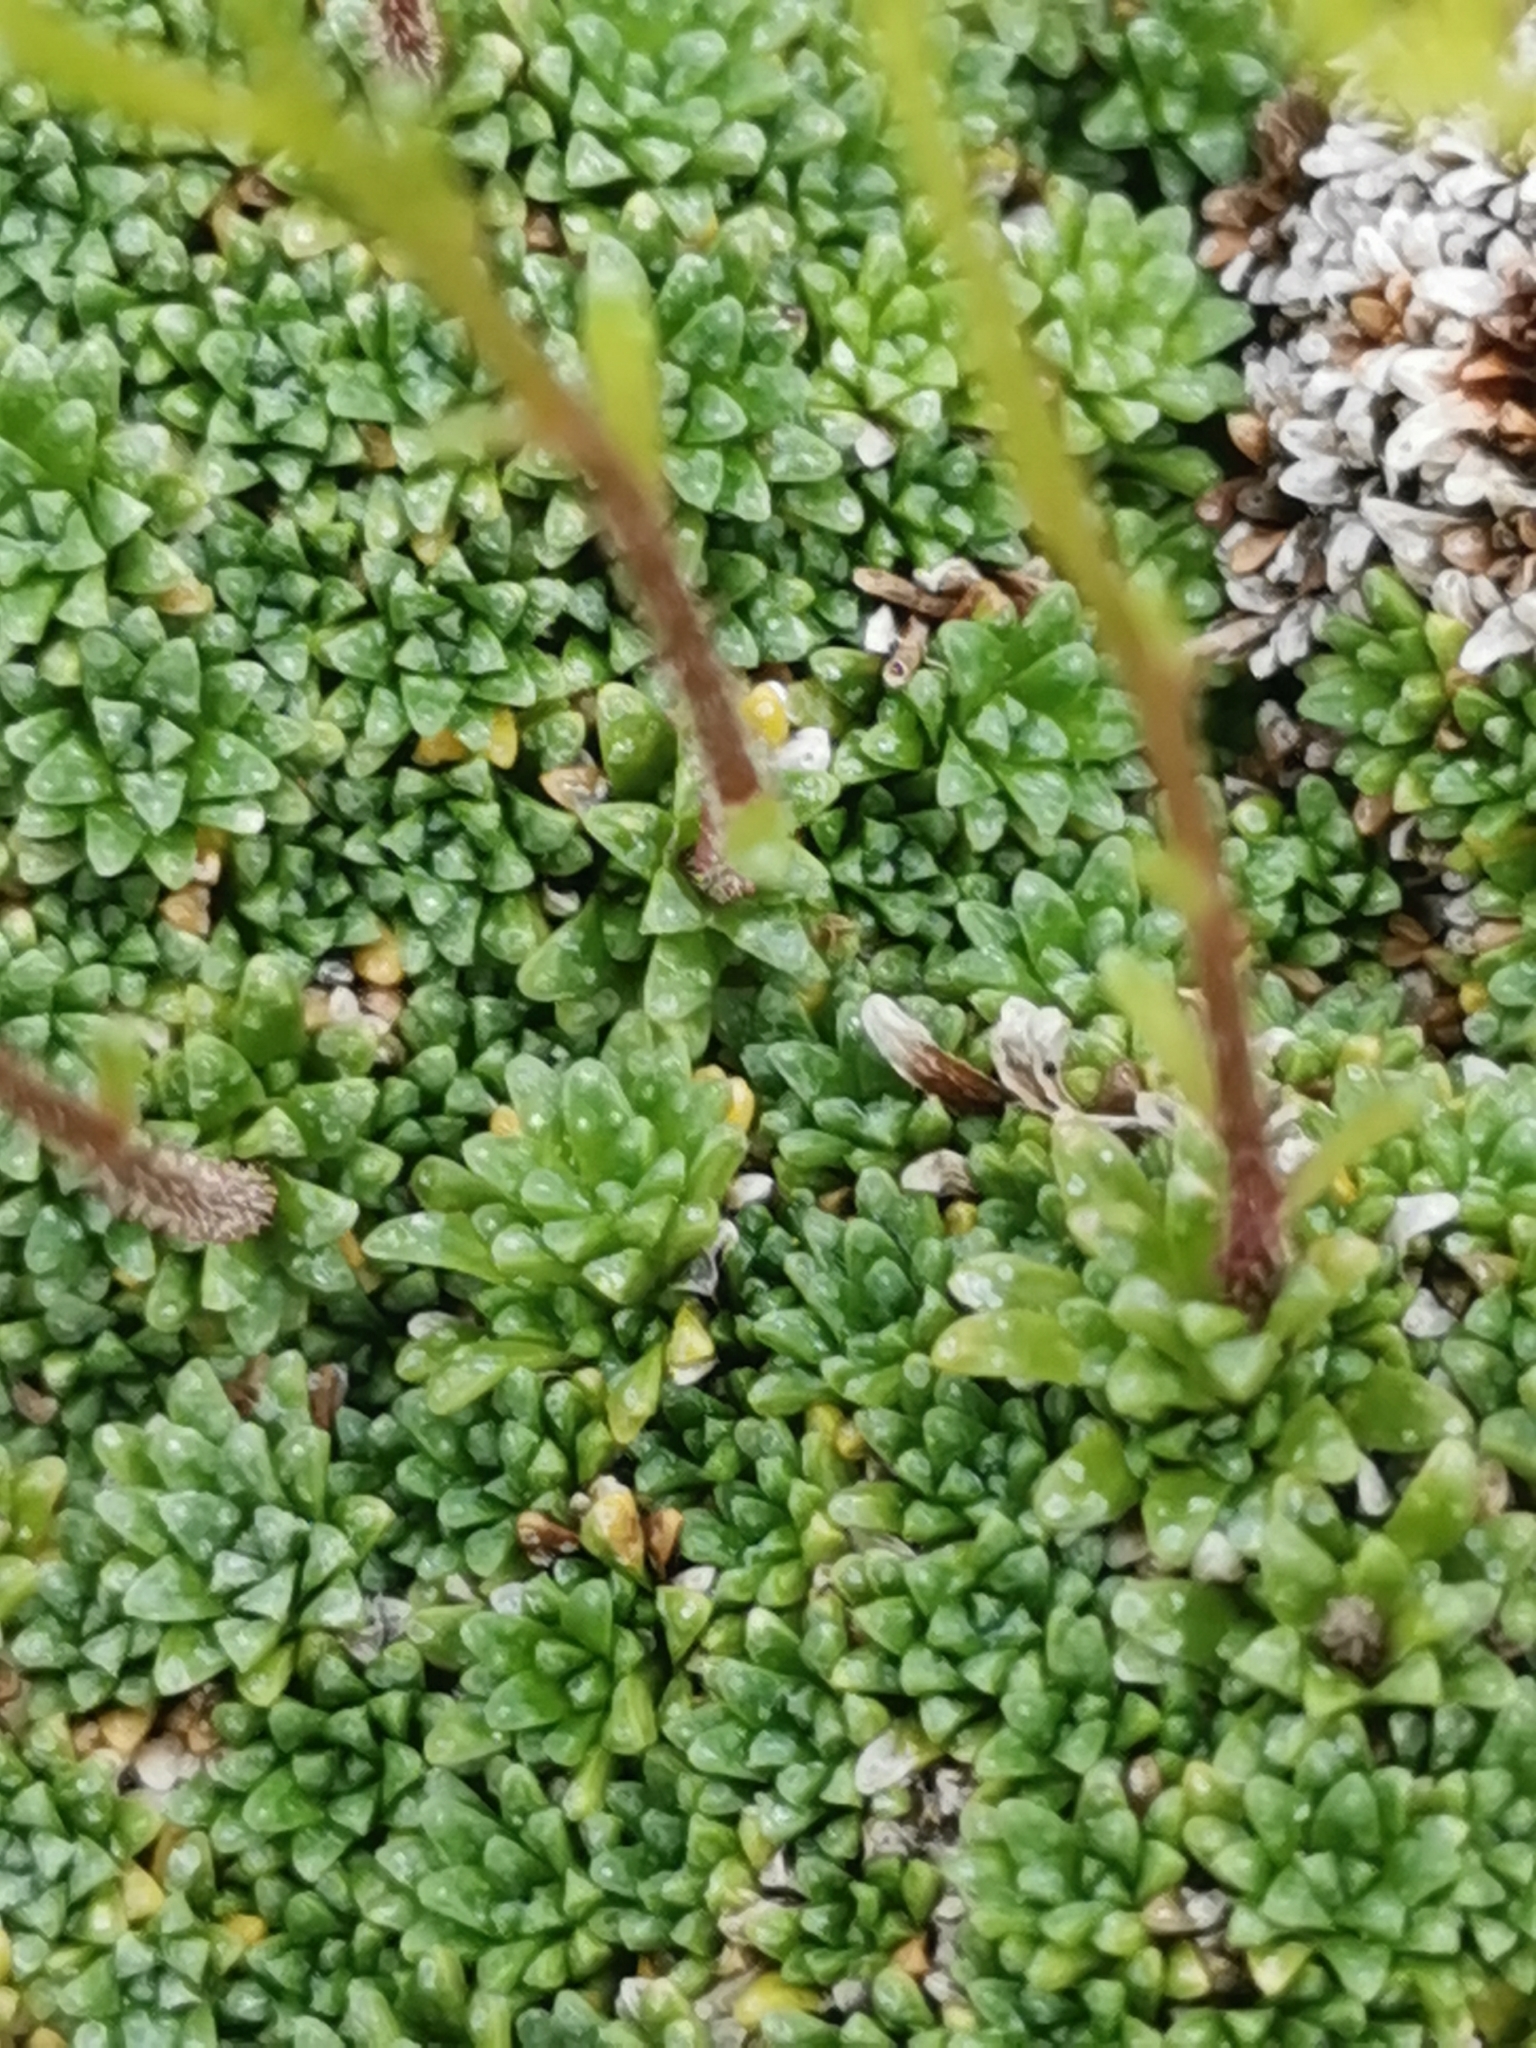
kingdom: Plantae
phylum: Tracheophyta
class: Magnoliopsida
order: Saxifragales
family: Saxifragaceae
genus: Saxifraga
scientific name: Saxifraga squarrosa
